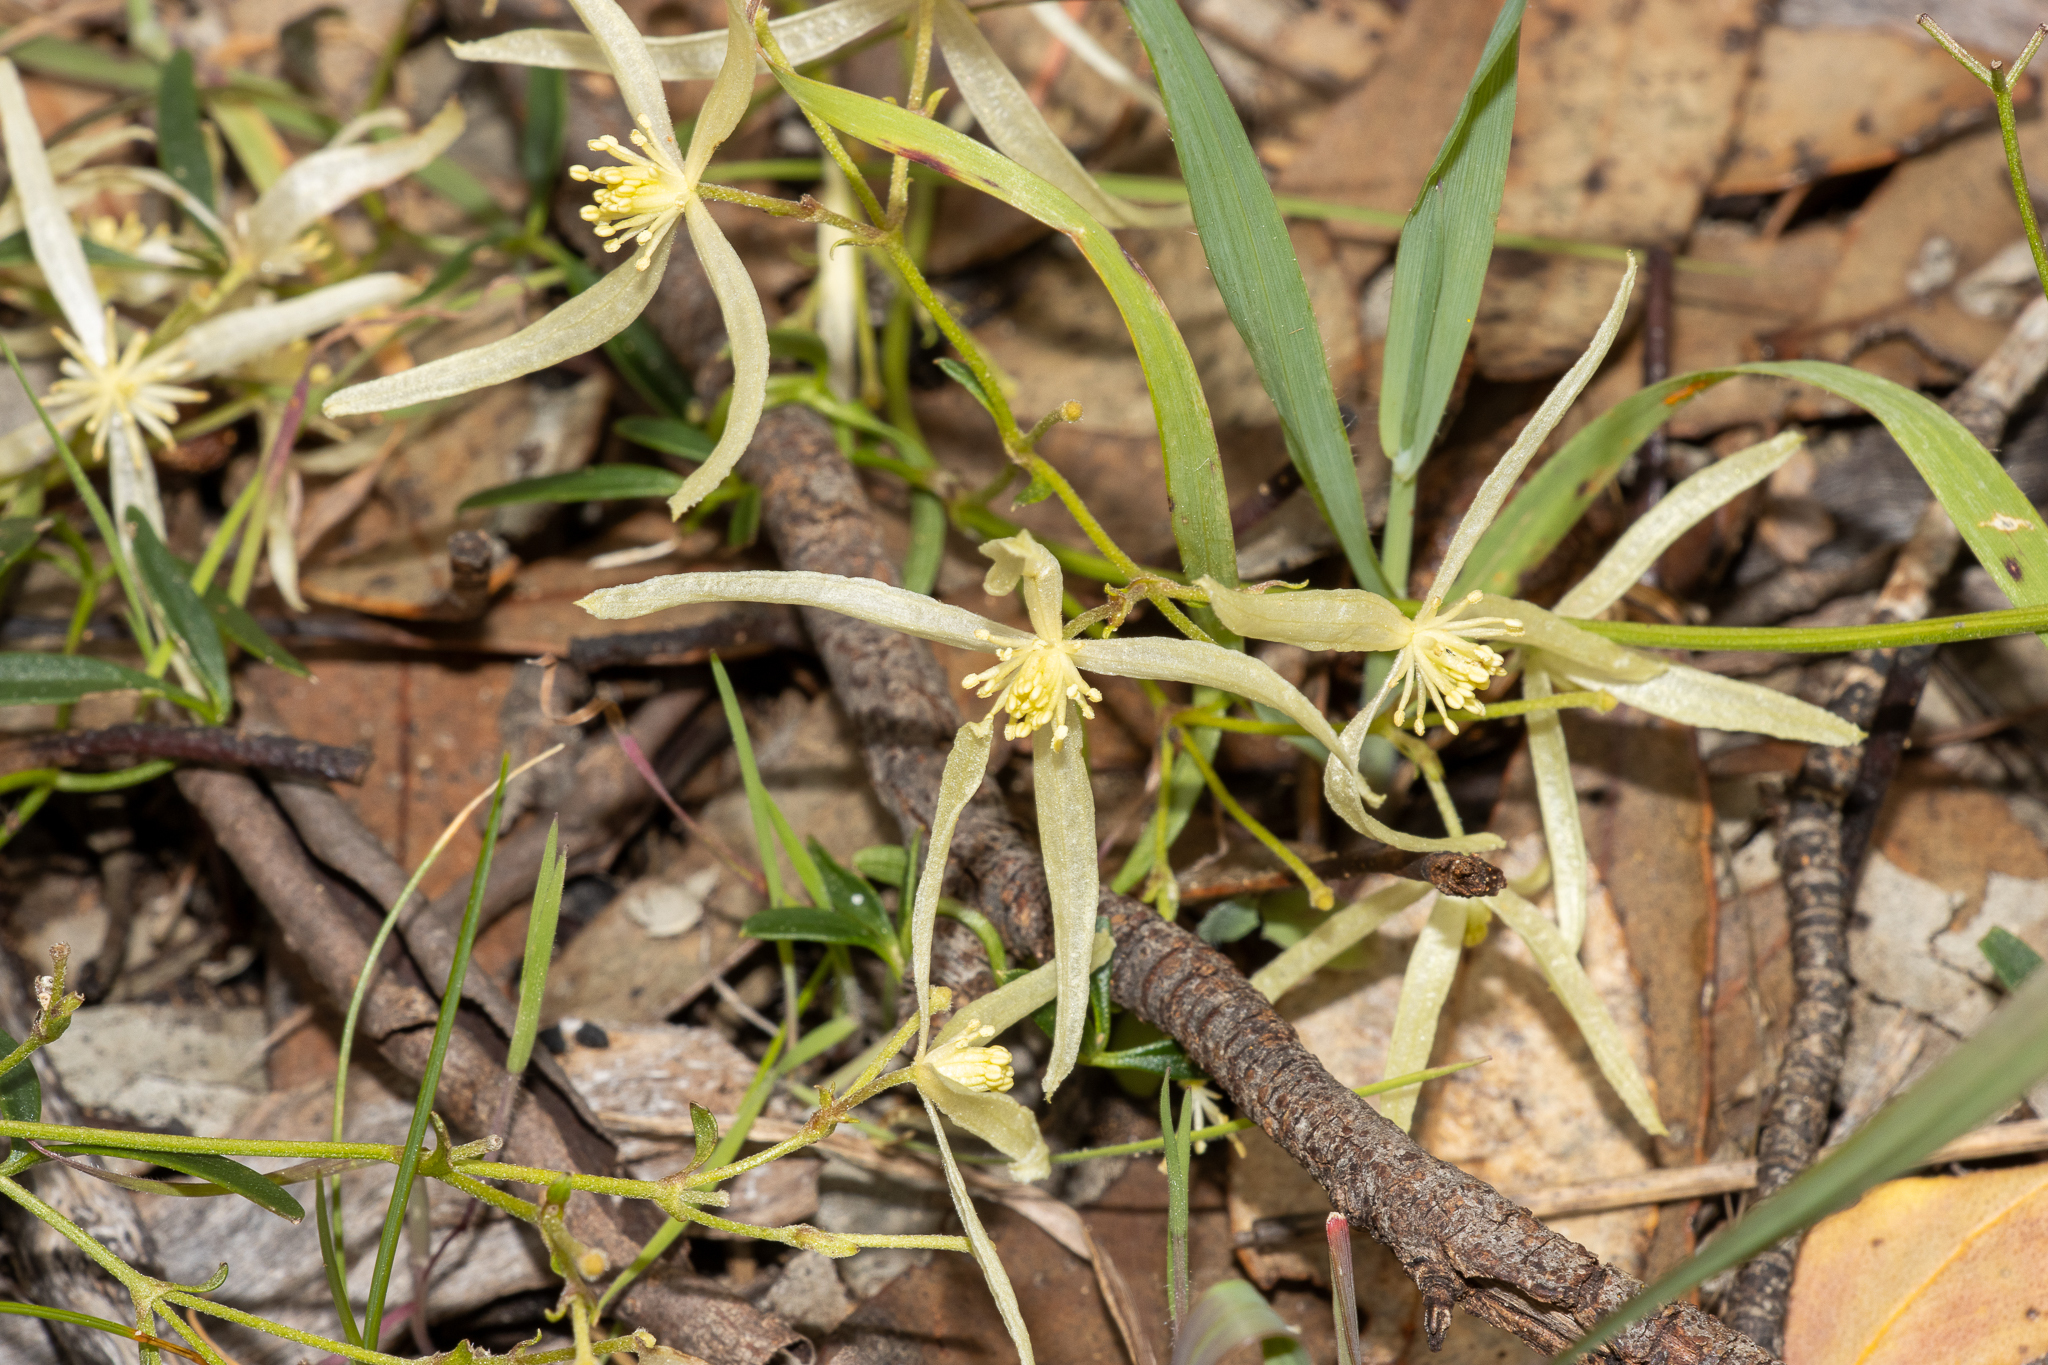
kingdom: Plantae
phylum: Tracheophyta
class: Magnoliopsida
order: Ranunculales
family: Ranunculaceae
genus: Clematis
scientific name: Clematis microphylla
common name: Headachevine
